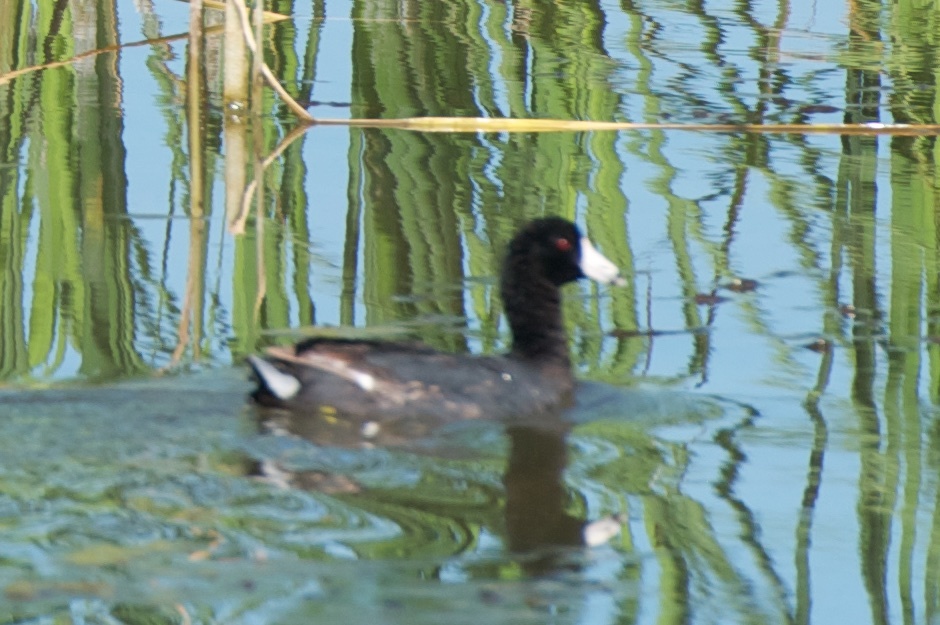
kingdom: Animalia
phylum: Chordata
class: Aves
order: Gruiformes
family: Rallidae
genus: Fulica
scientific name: Fulica americana
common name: American coot
